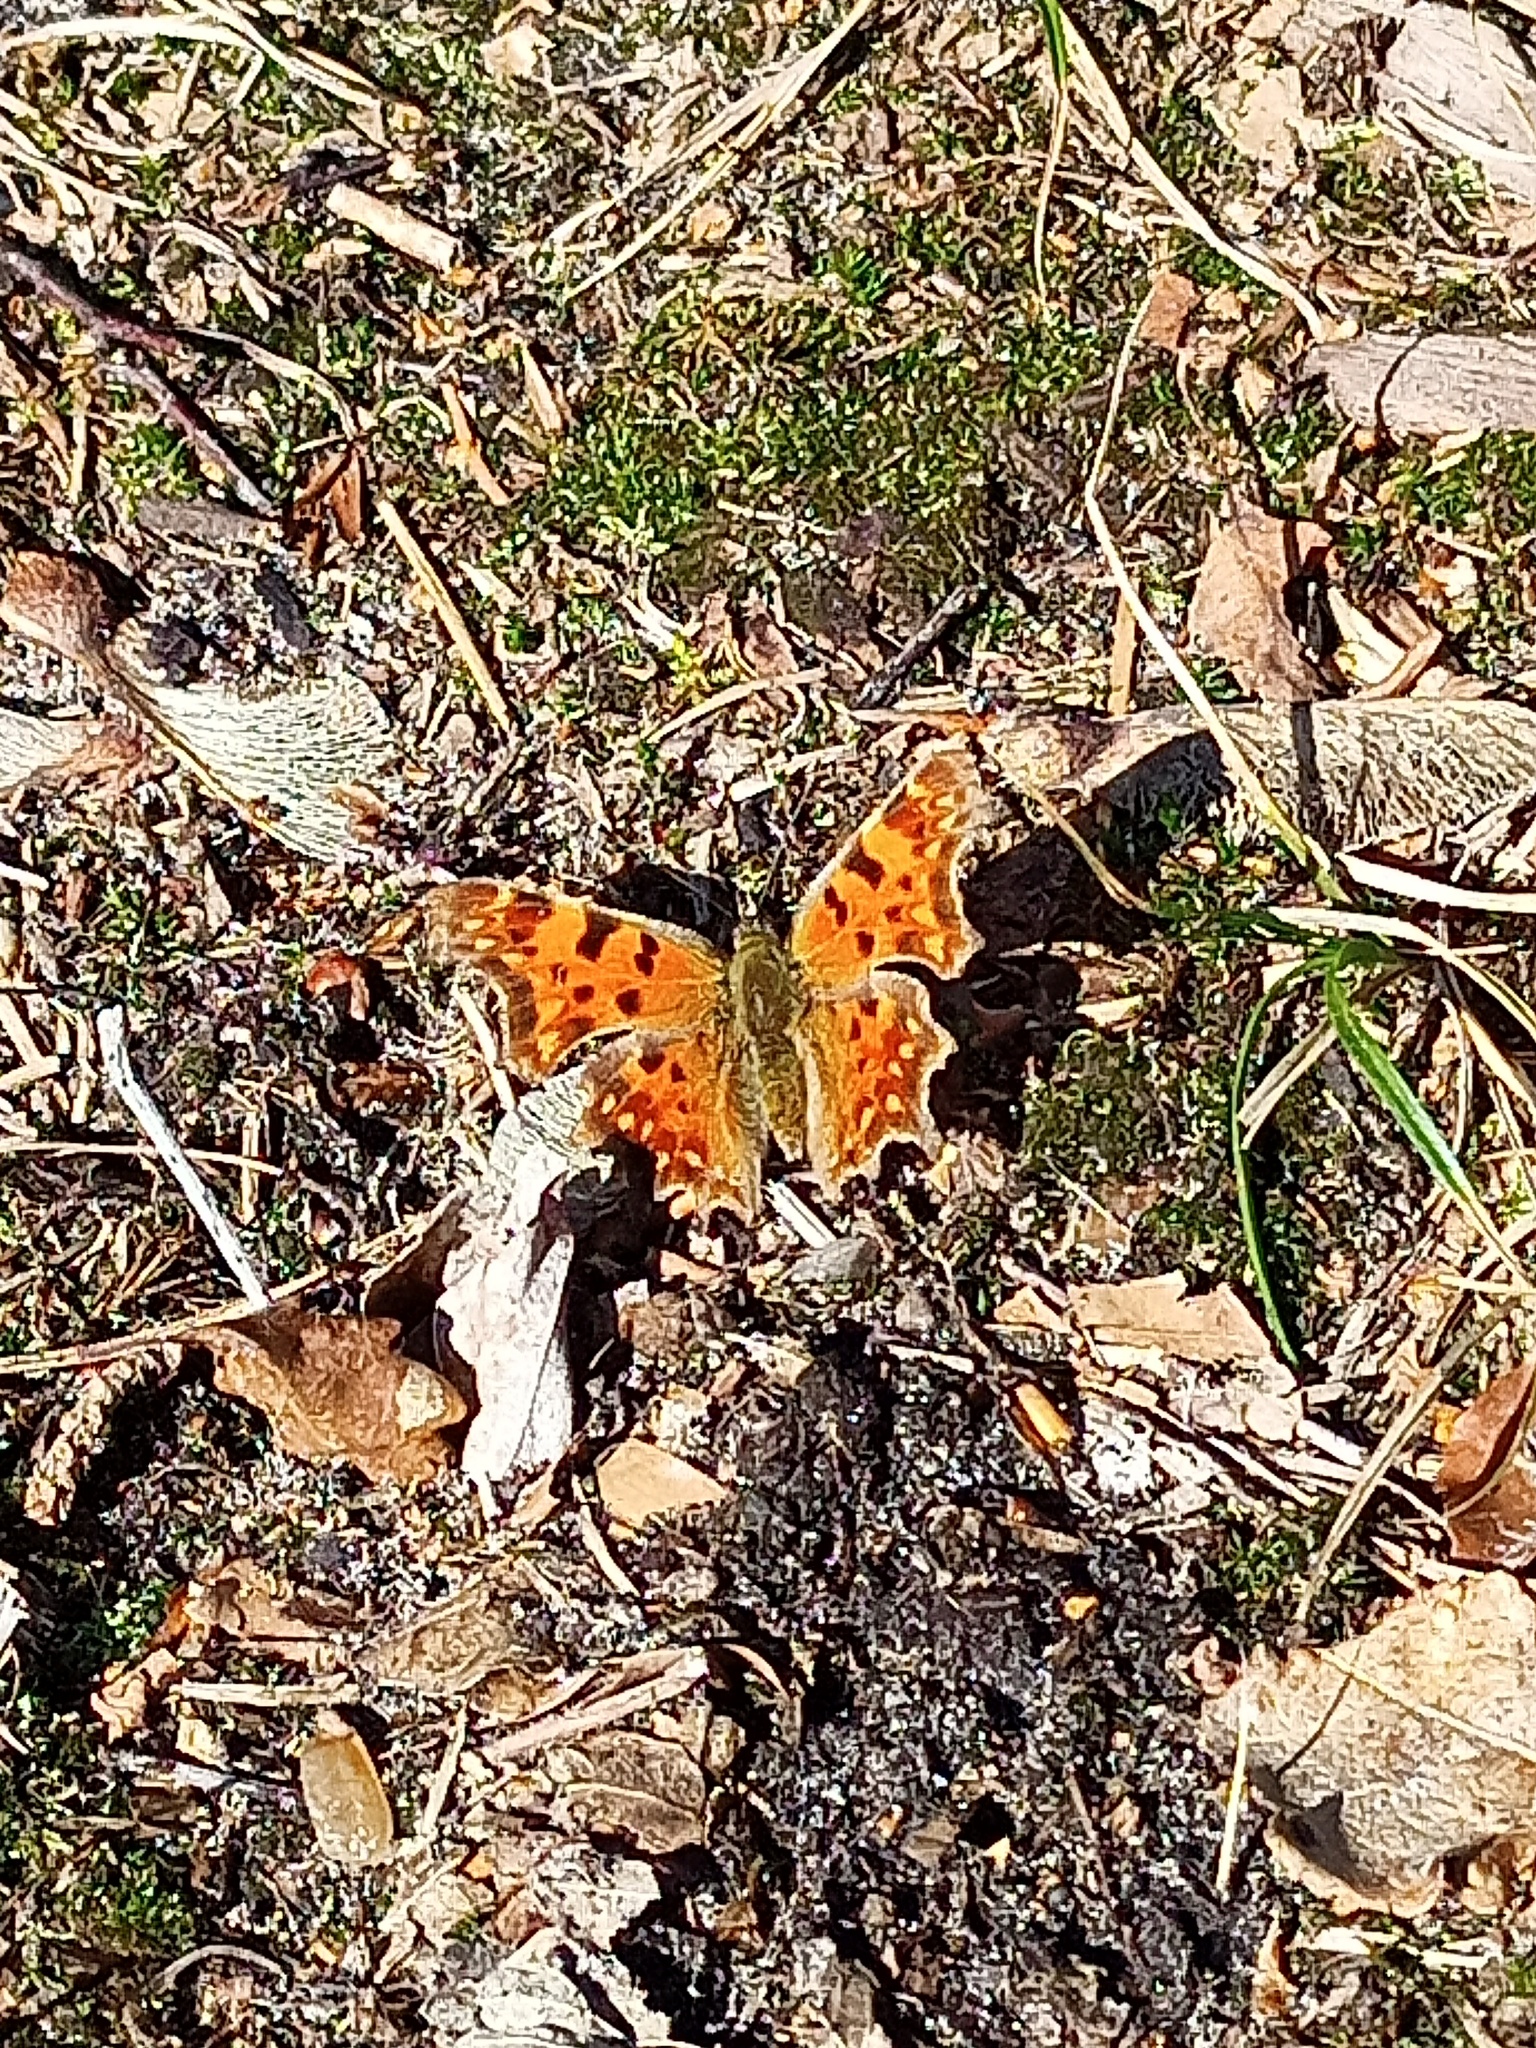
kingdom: Animalia
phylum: Arthropoda
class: Insecta
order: Lepidoptera
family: Nymphalidae
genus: Polygonia
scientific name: Polygonia c-album
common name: Comma
